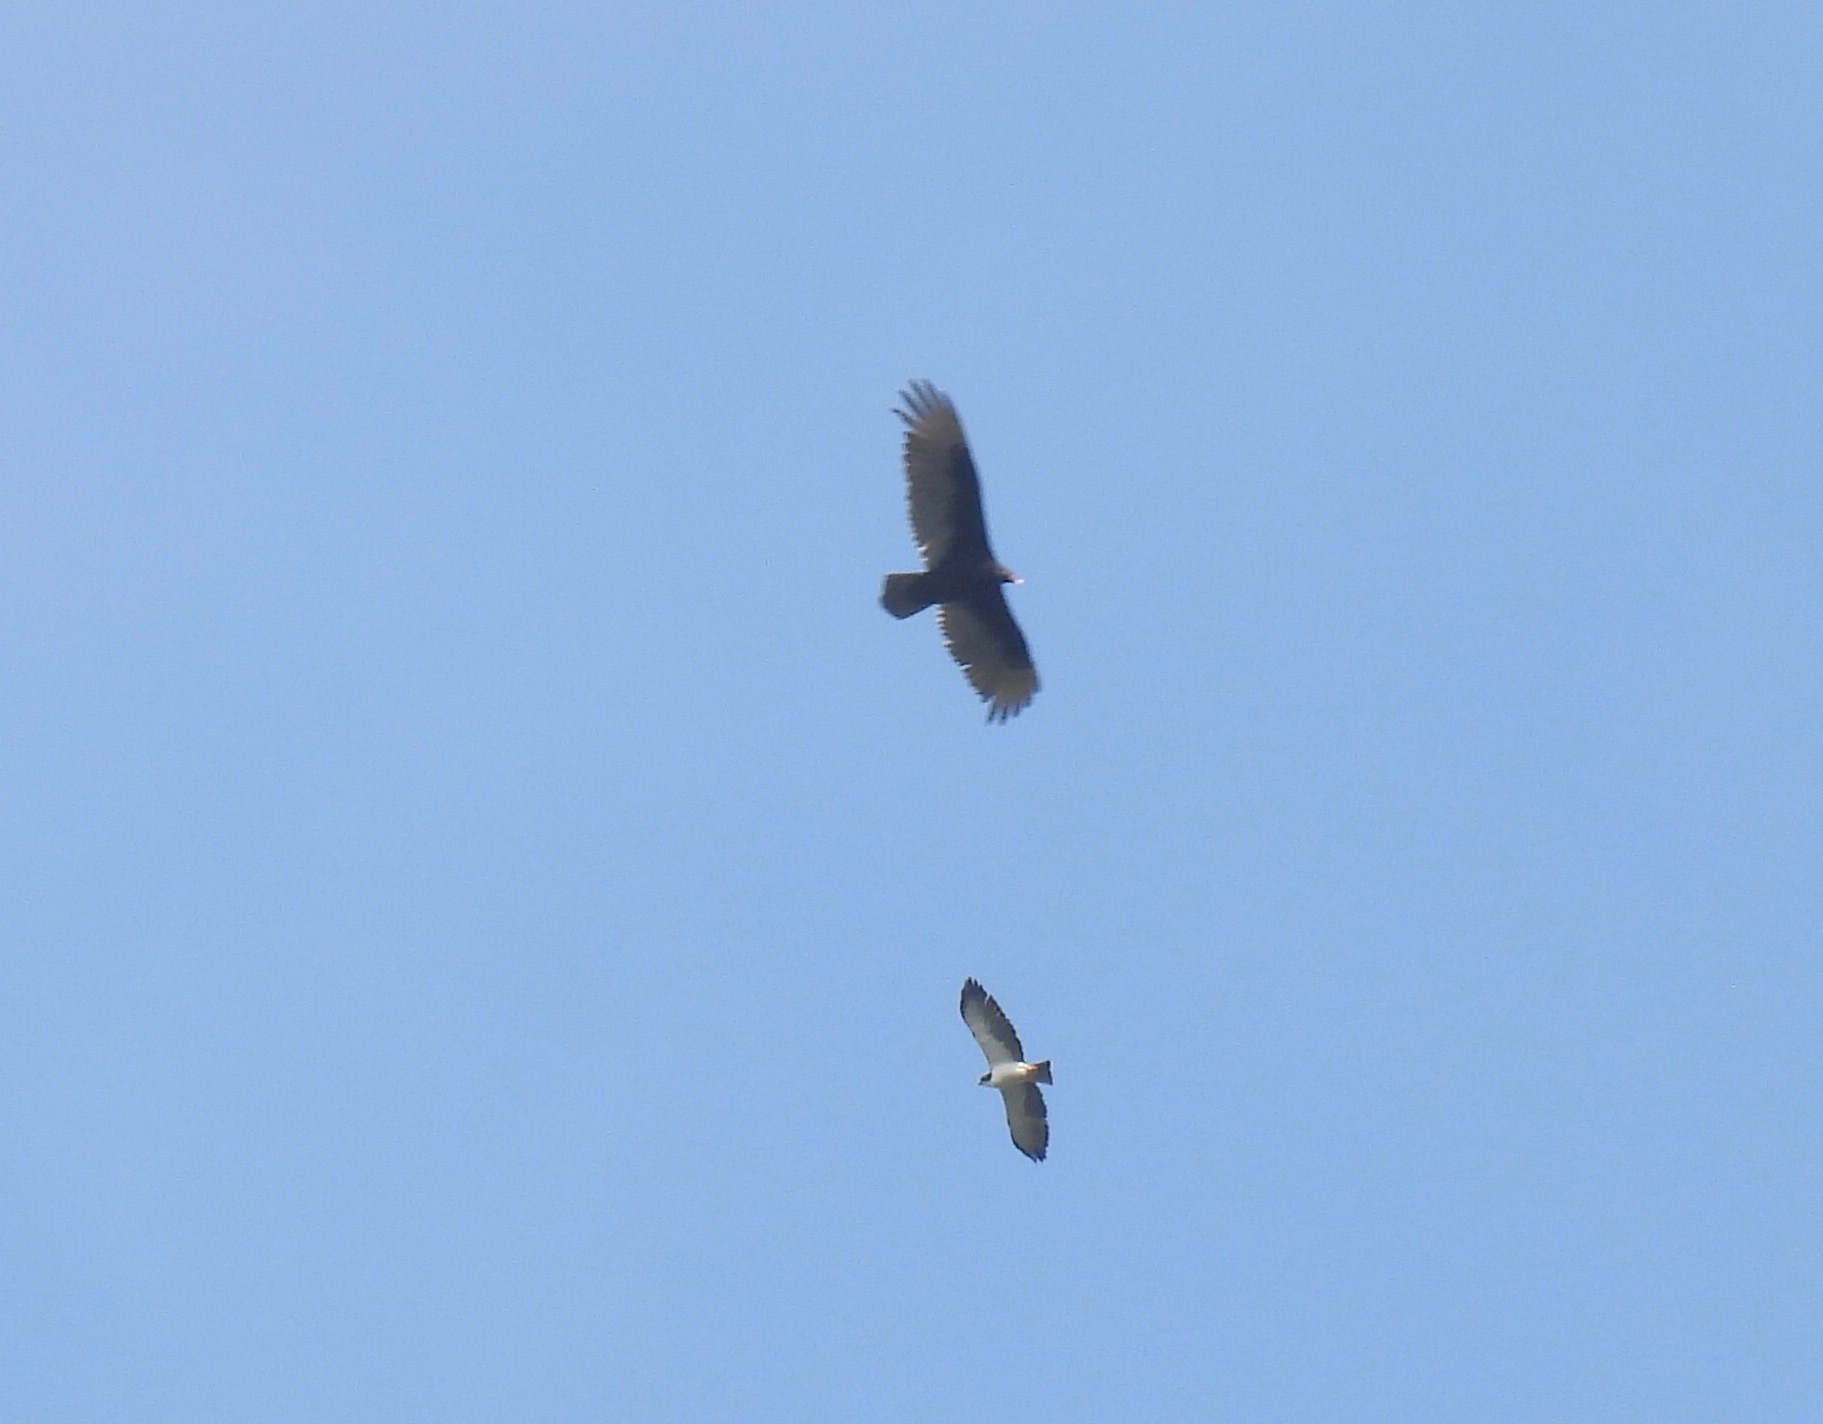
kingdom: Animalia
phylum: Chordata
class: Aves
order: Accipitriformes
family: Cathartidae
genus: Cathartes
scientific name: Cathartes aura
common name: Turkey vulture
